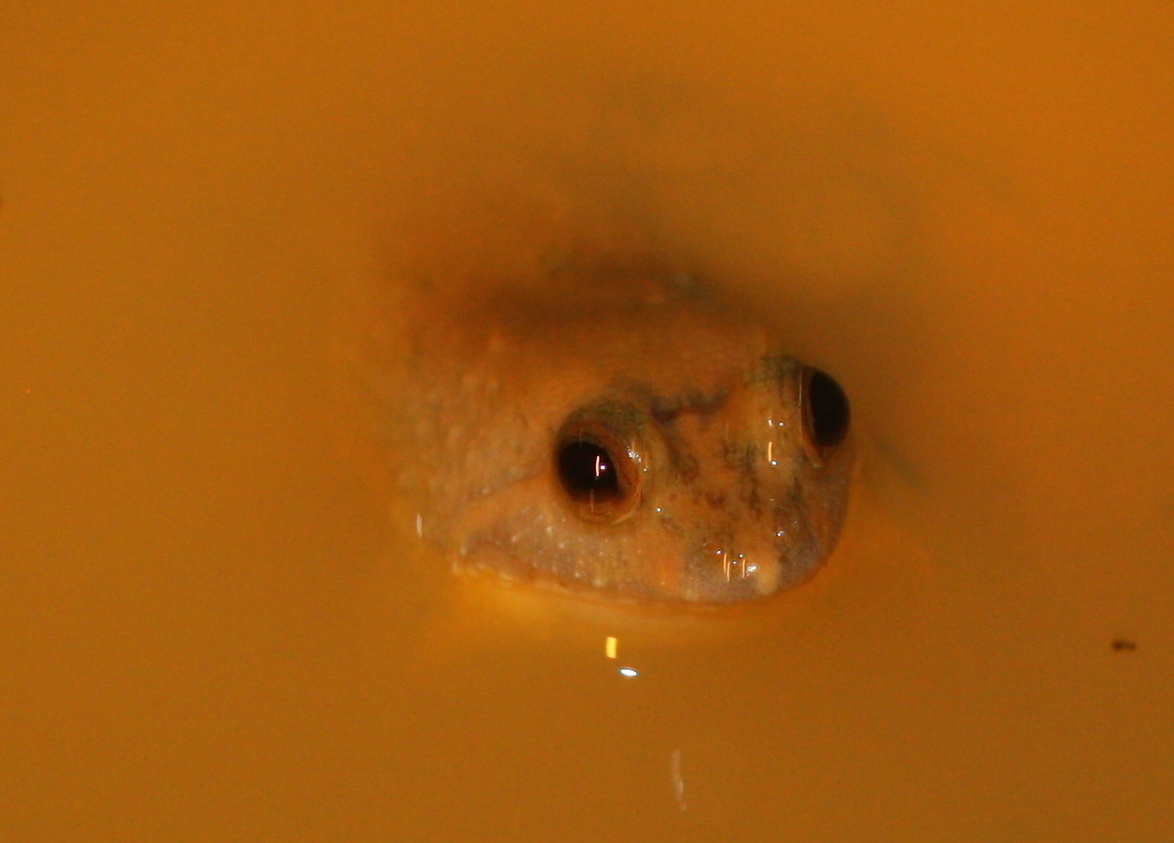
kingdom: Animalia
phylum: Chordata
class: Amphibia
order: Anura
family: Dicroglossidae
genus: Occidozyga
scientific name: Occidozyga sumatrana
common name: Puddle frog
